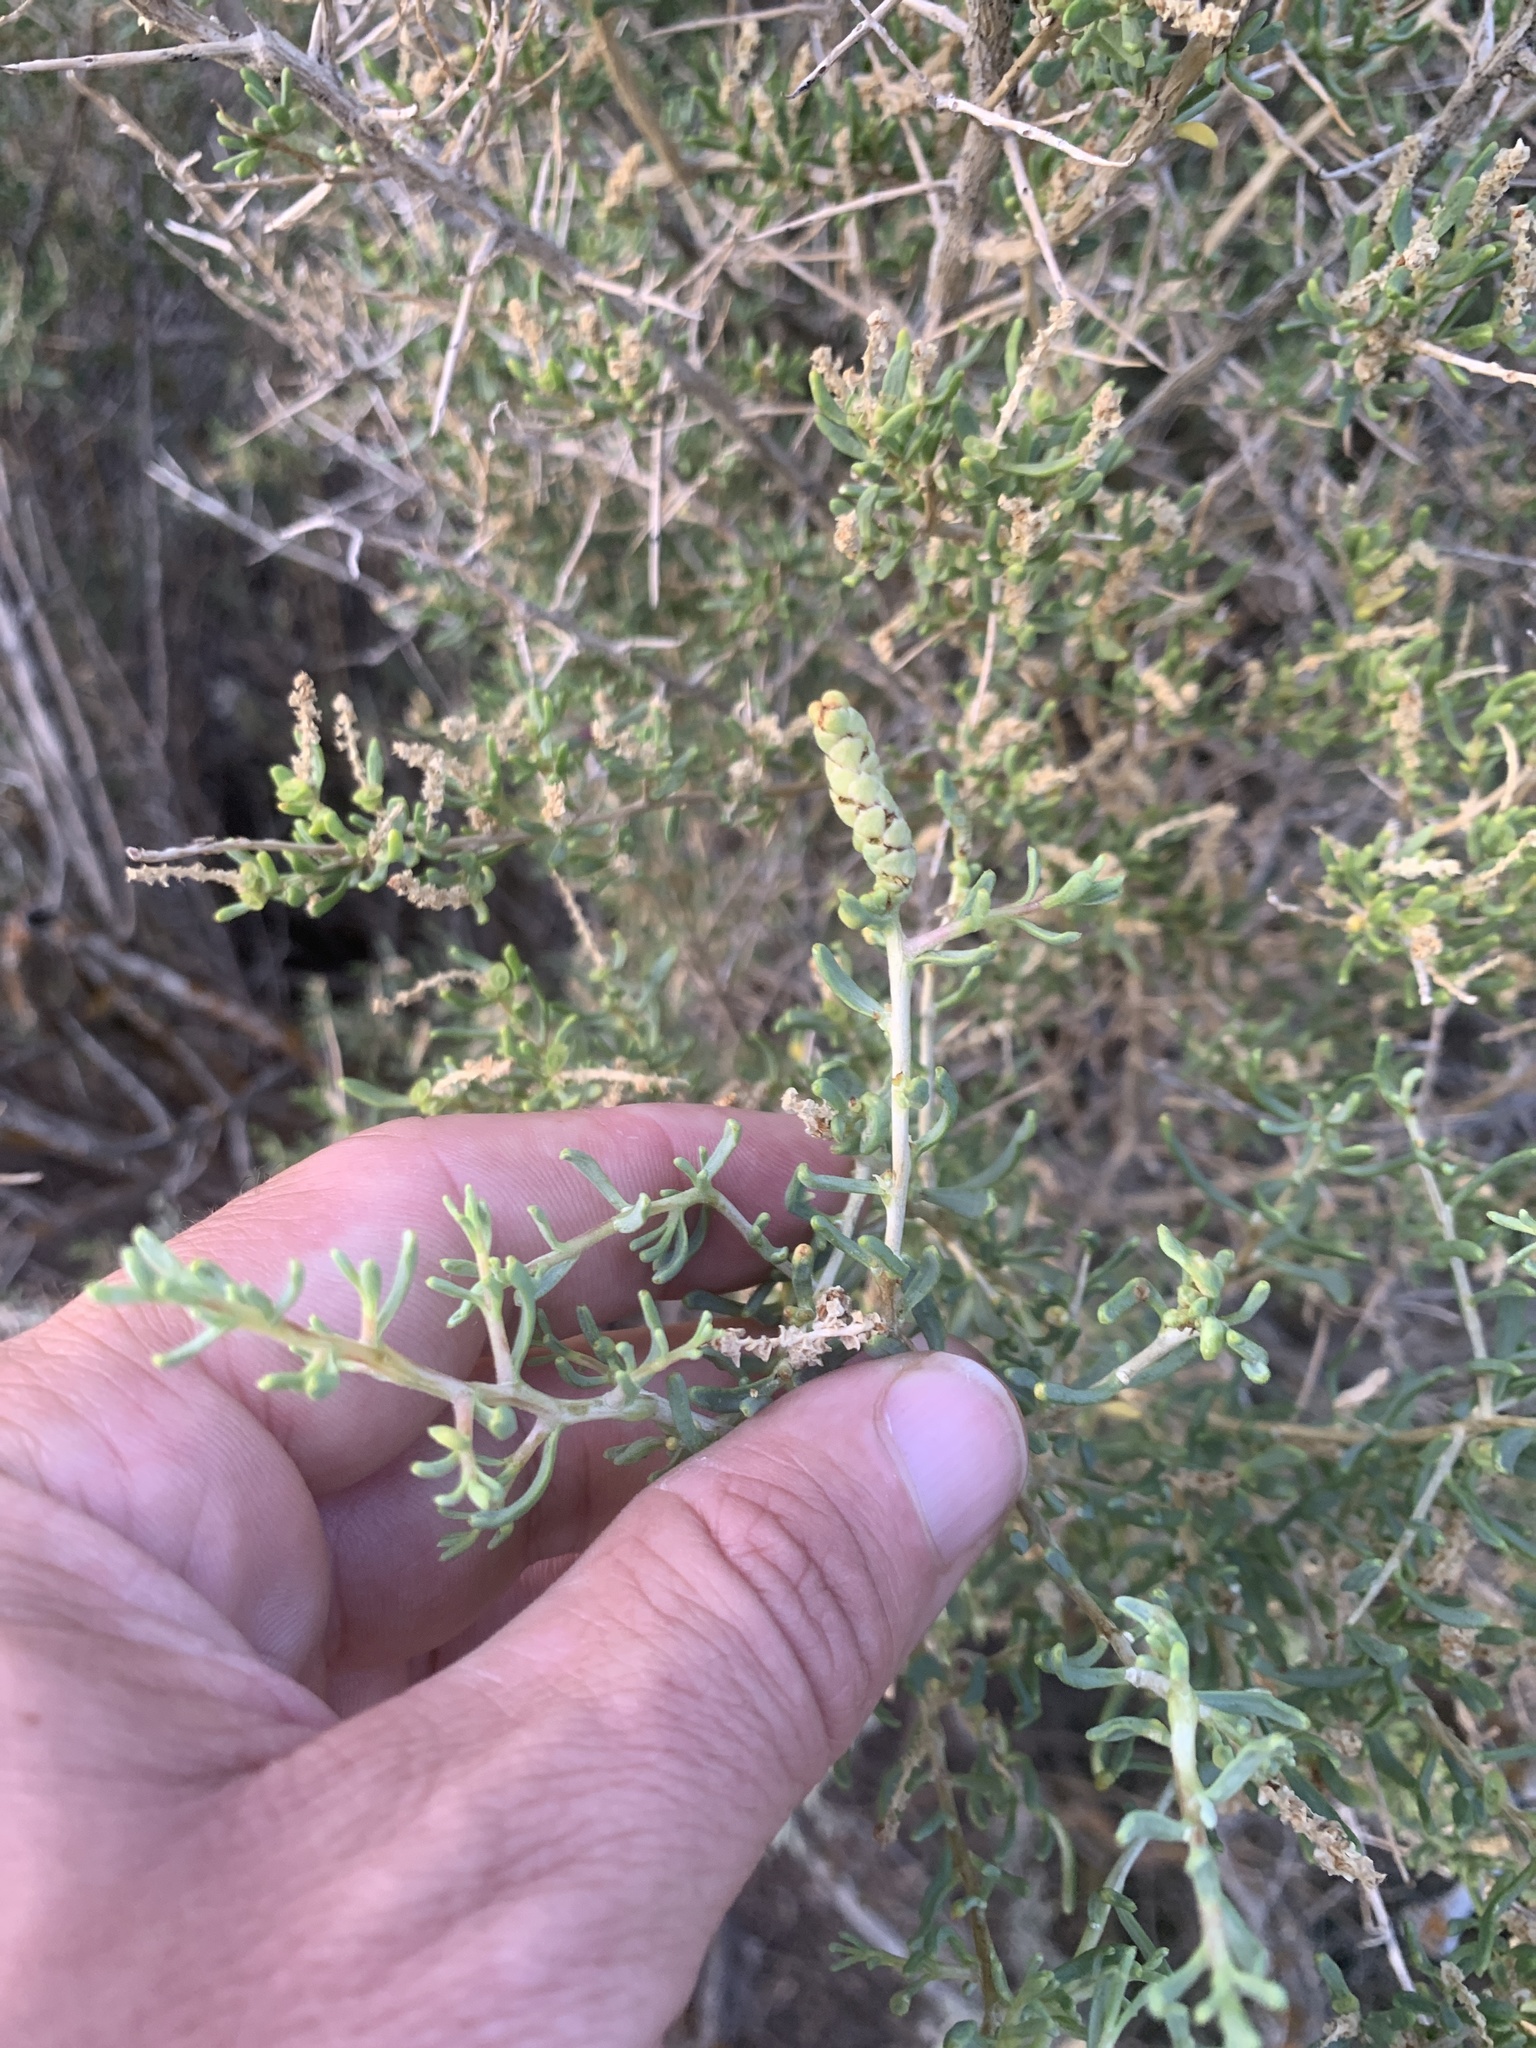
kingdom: Plantae
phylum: Tracheophyta
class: Magnoliopsida
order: Caryophyllales
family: Sarcobataceae
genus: Sarcobatus
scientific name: Sarcobatus vermiculatus
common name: Greasewood
